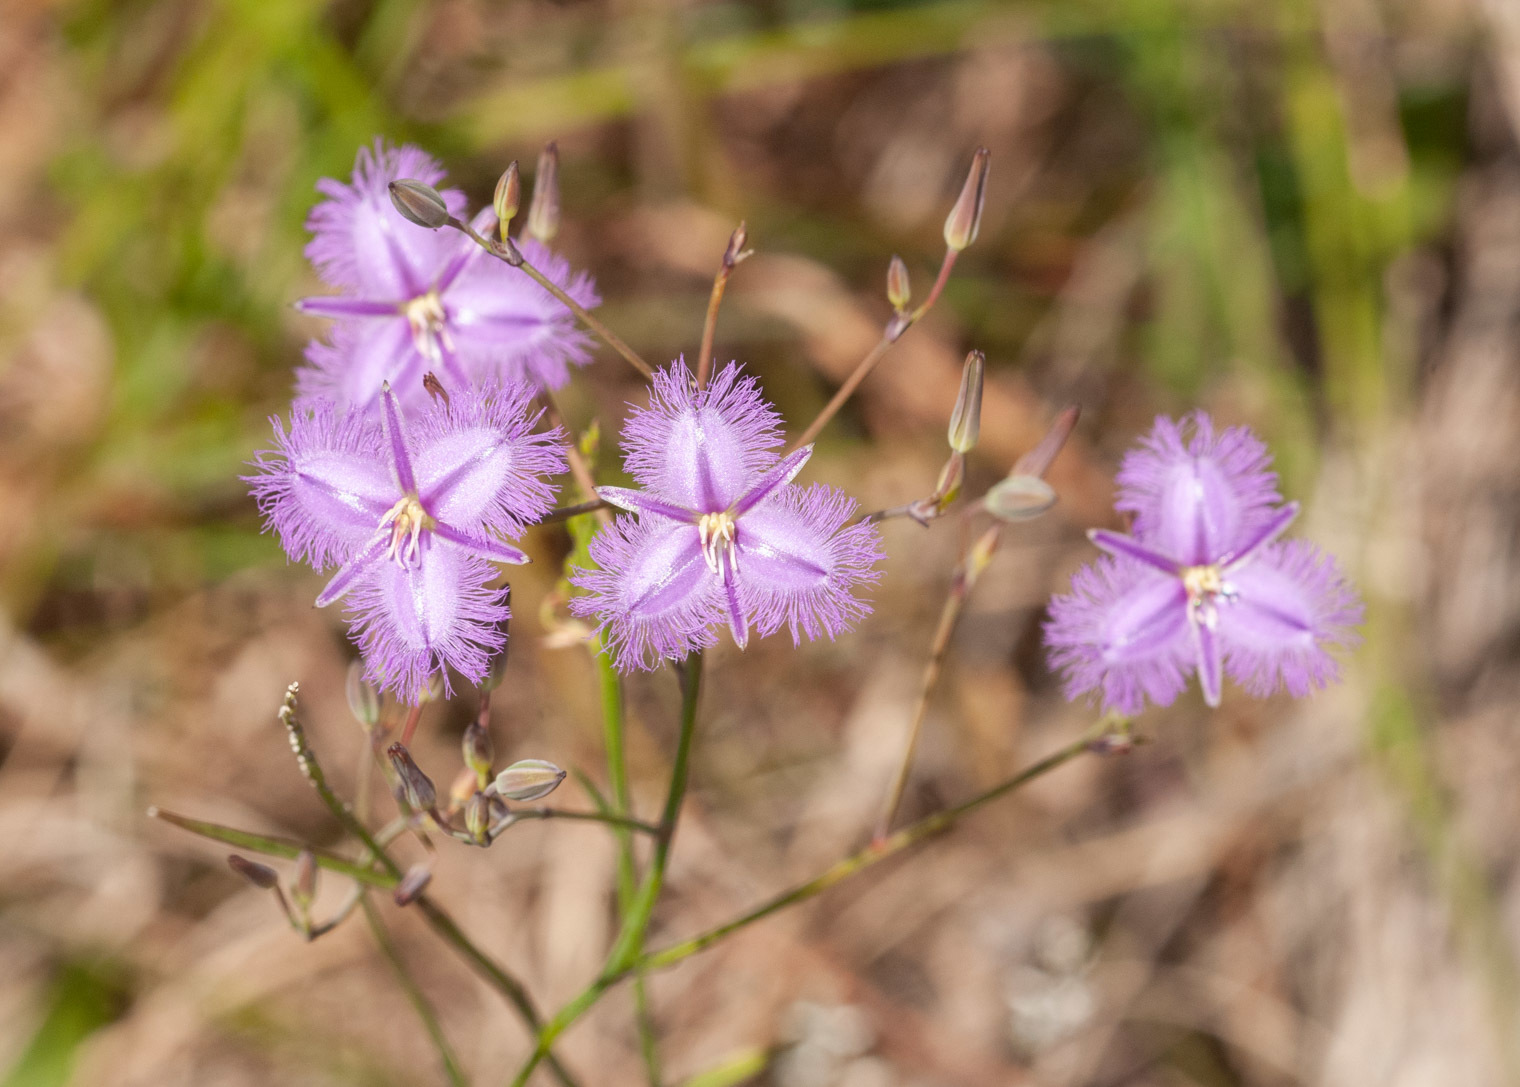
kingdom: Plantae
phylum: Tracheophyta
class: Liliopsida
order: Asparagales
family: Asparagaceae
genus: Thysanotus
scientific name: Thysanotus tuberosus
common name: Common fringed-lily
